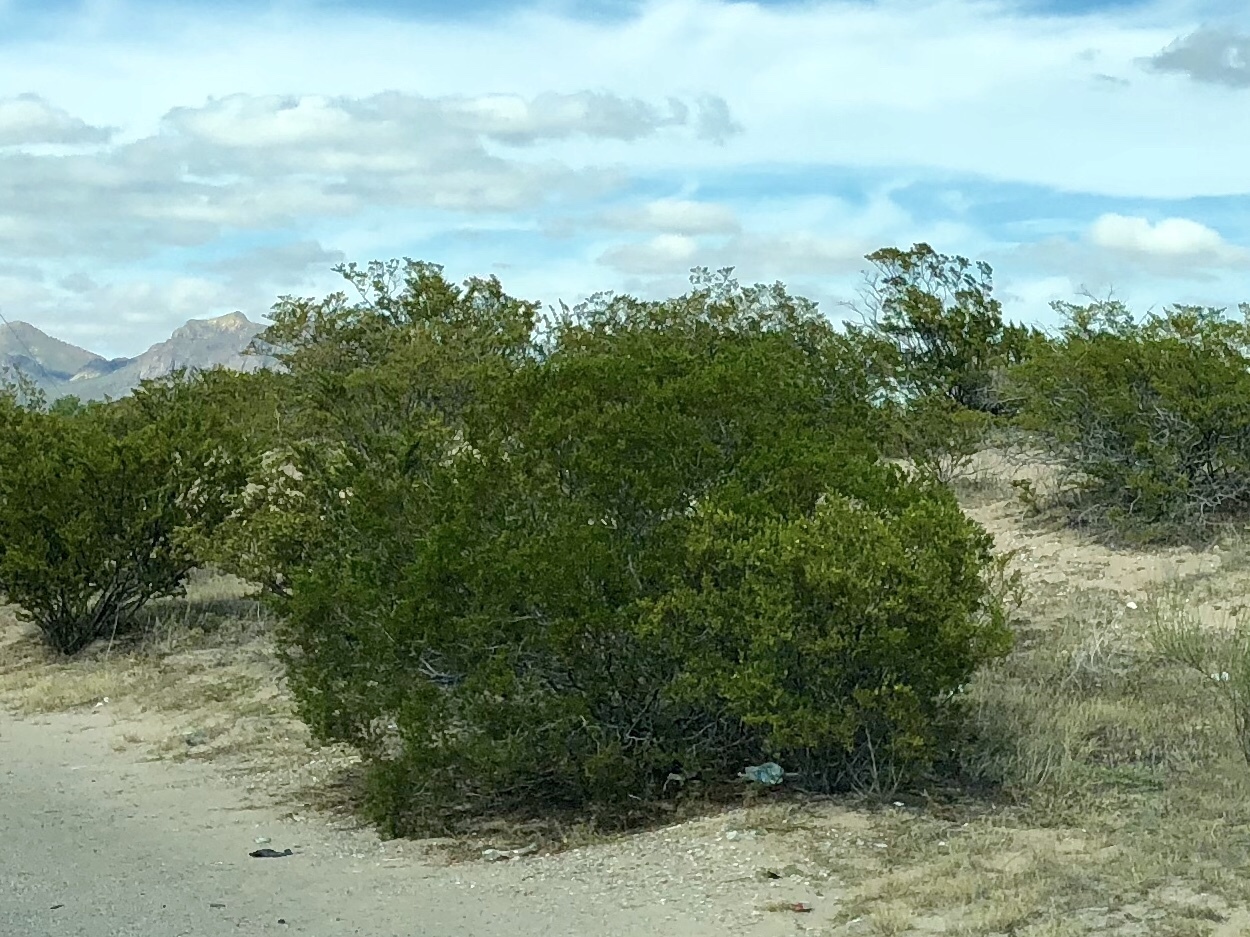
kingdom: Plantae
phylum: Tracheophyta
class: Magnoliopsida
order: Zygophyllales
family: Zygophyllaceae
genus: Larrea
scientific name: Larrea tridentata
